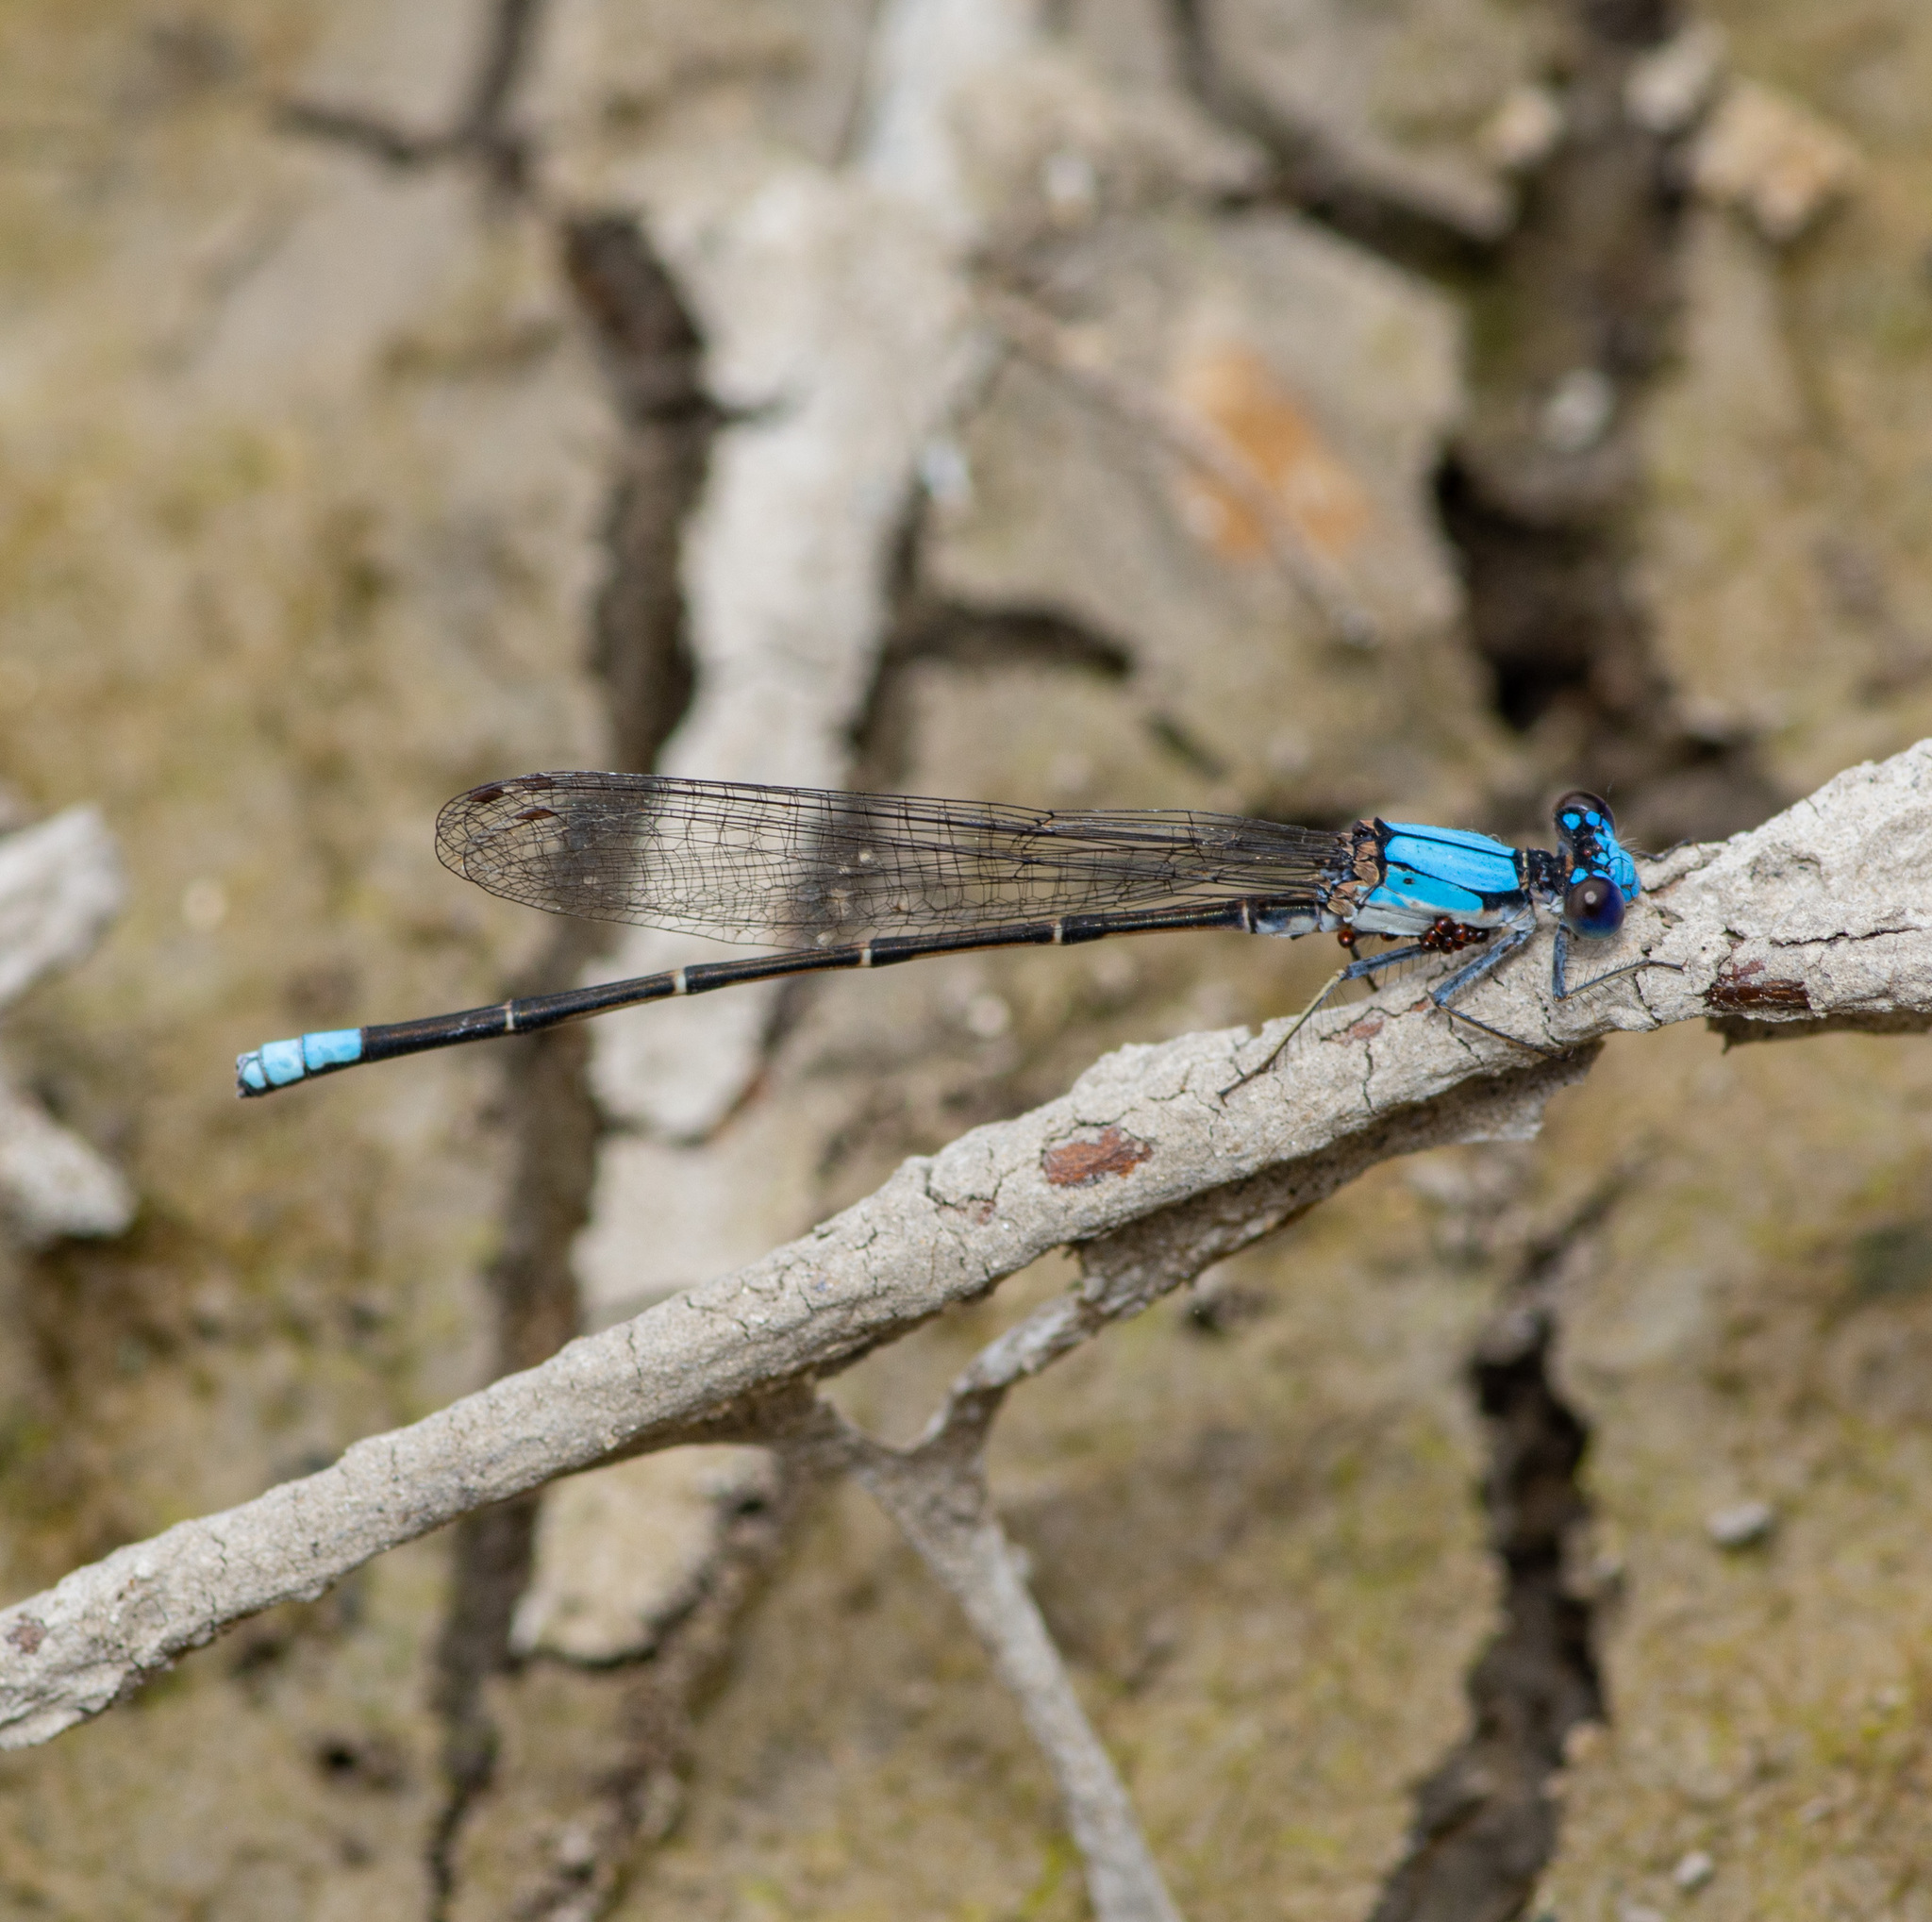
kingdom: Animalia
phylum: Arthropoda
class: Insecta
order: Odonata
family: Coenagrionidae
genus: Argia
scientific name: Argia apicalis
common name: Blue-fronted dancer
